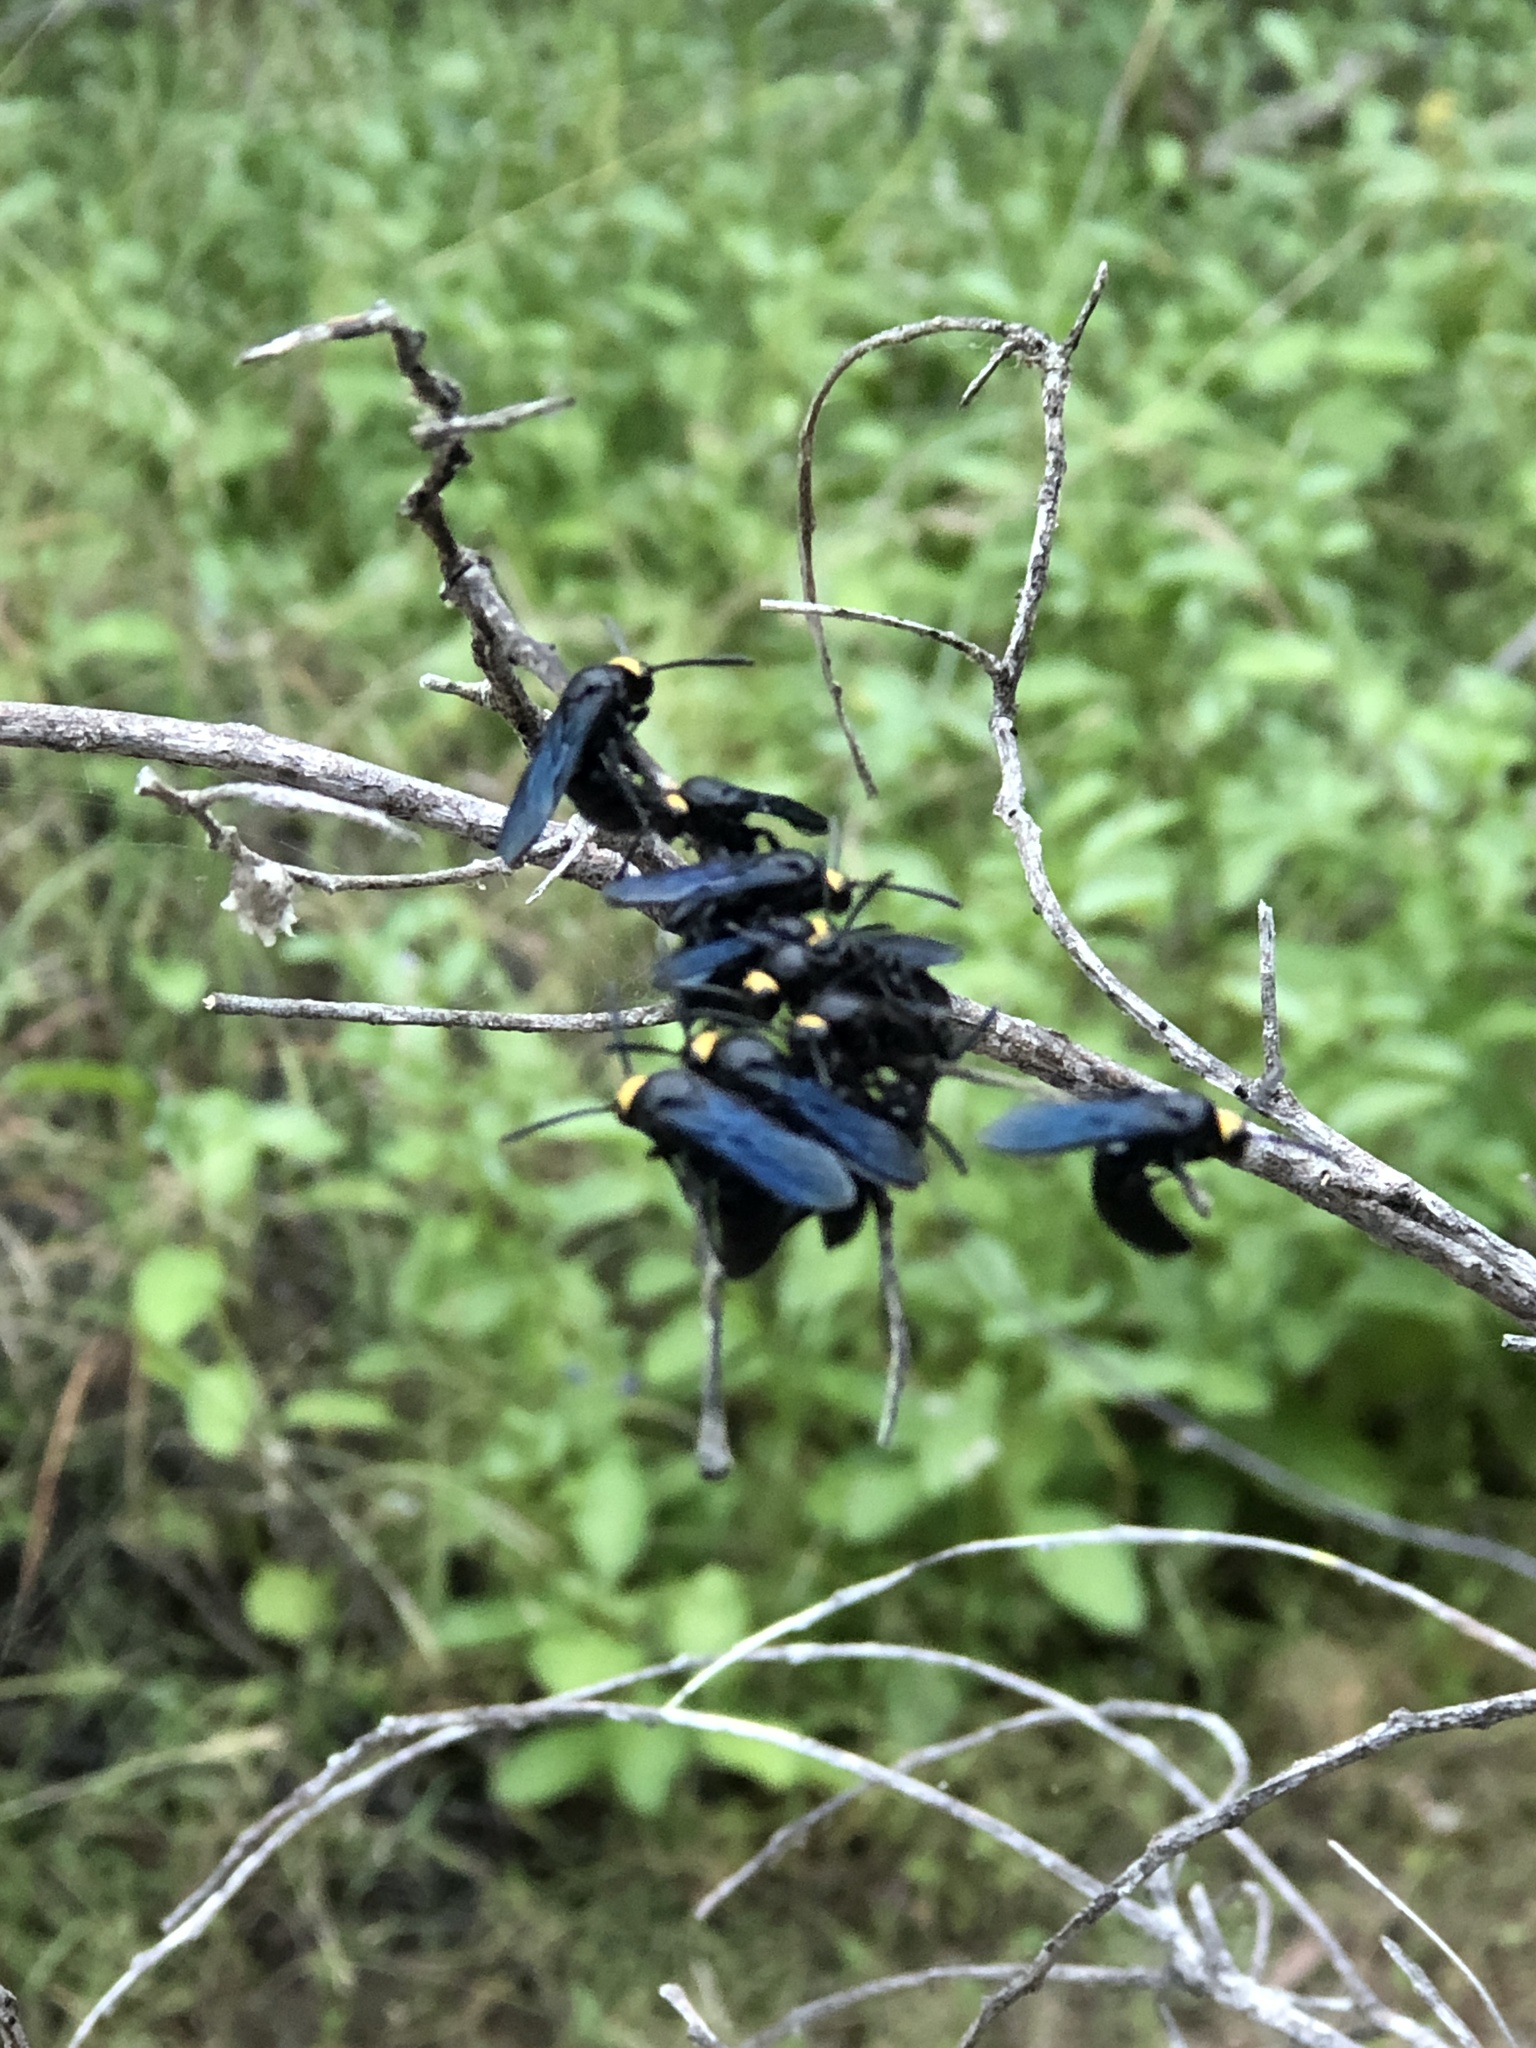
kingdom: Animalia
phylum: Arthropoda
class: Insecta
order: Hymenoptera
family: Scoliidae
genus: Scolia
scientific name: Scolia verticalis
